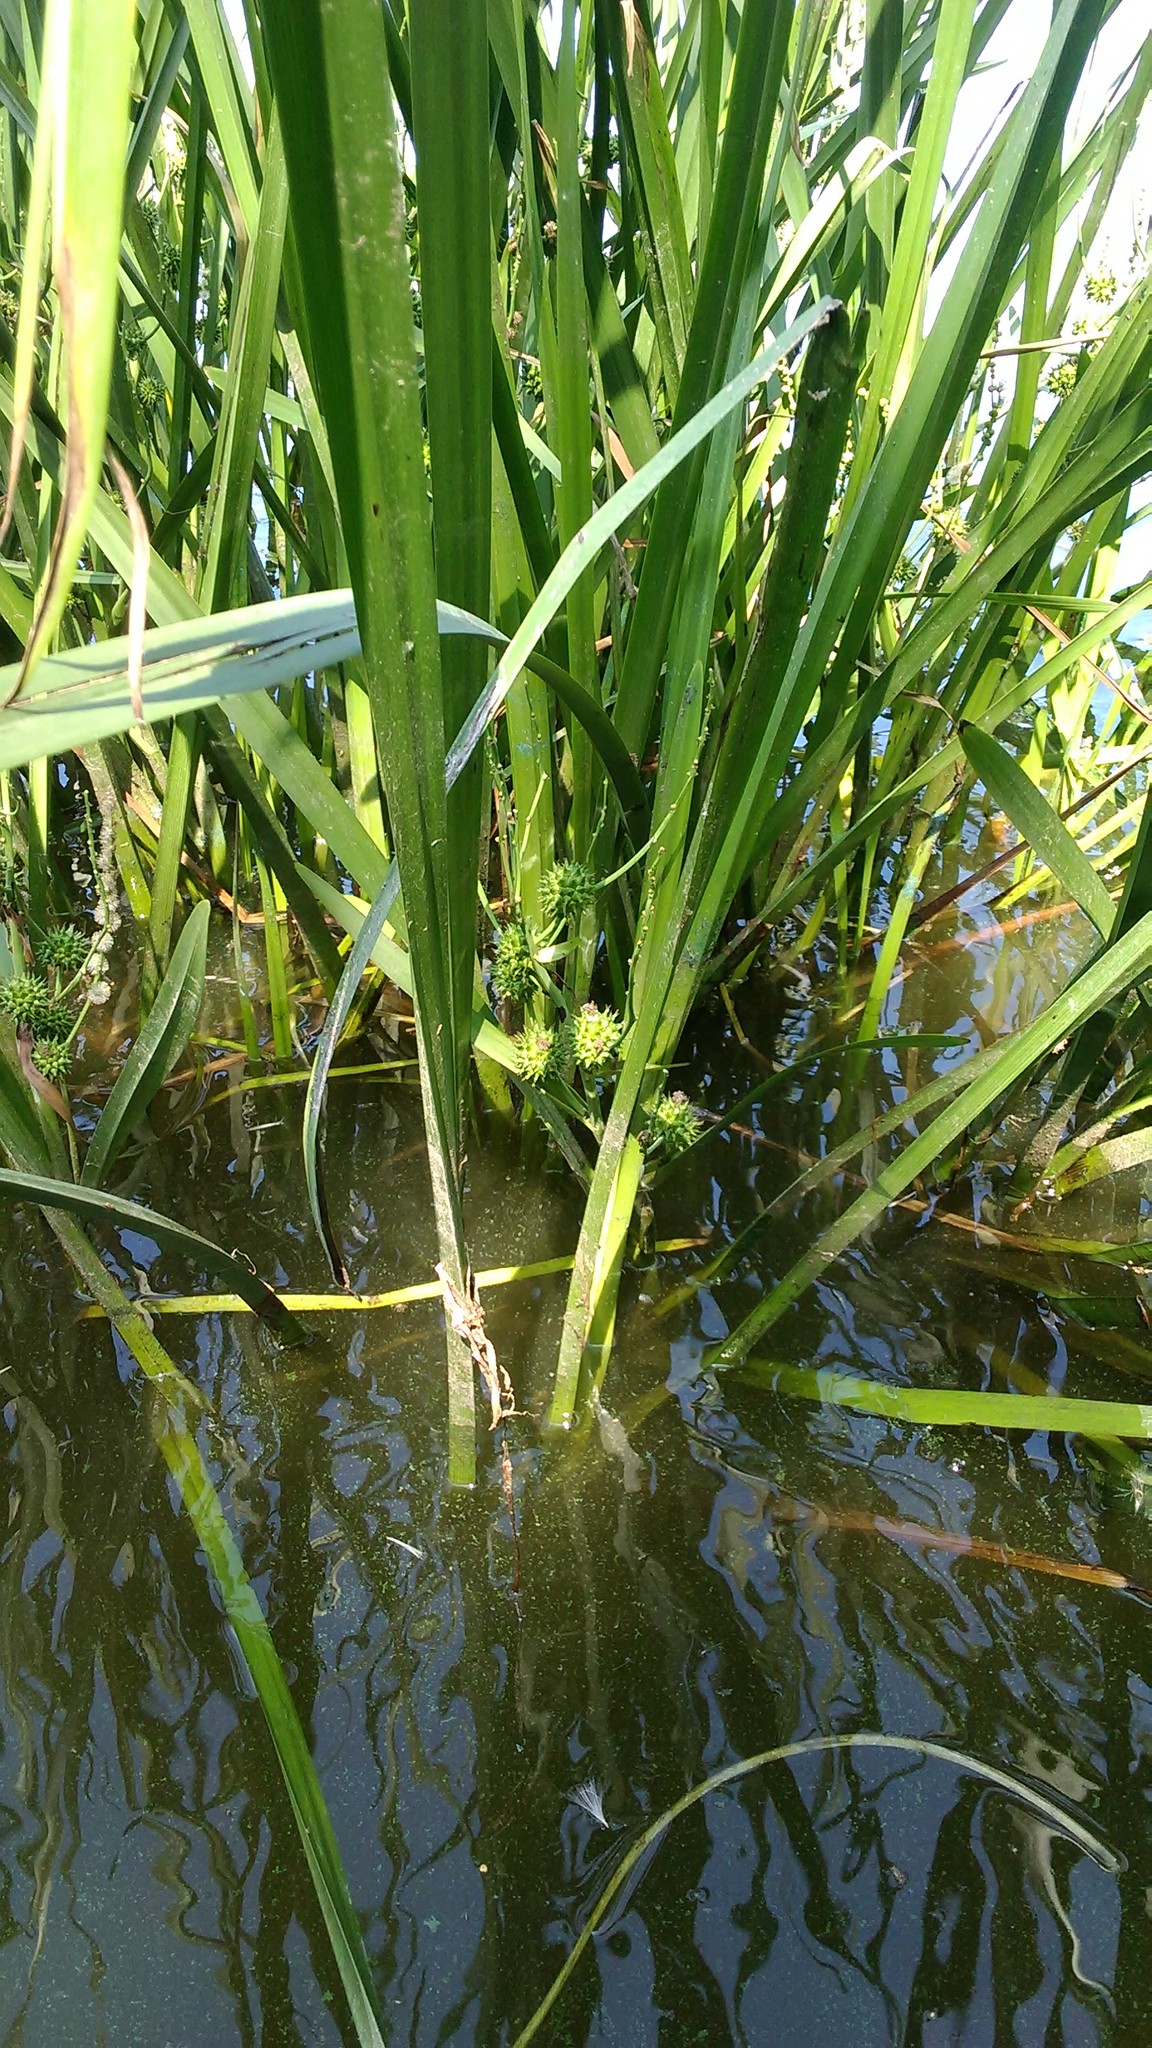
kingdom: Plantae
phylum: Tracheophyta
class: Liliopsida
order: Poales
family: Typhaceae
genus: Sparganium
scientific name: Sparganium erectum
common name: Branched bur-reed
